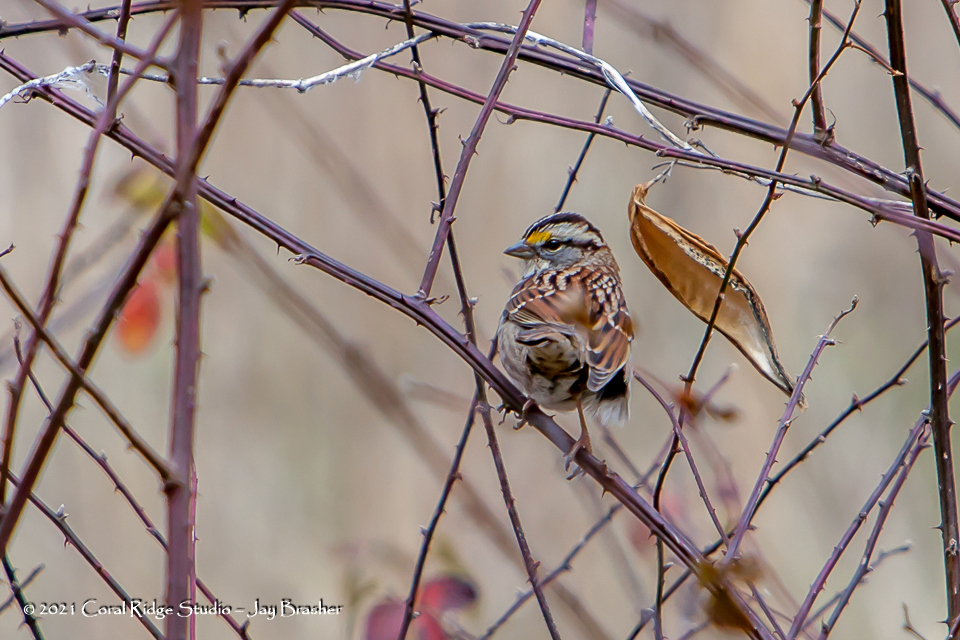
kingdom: Animalia
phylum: Chordata
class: Aves
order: Passeriformes
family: Passerellidae
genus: Zonotrichia
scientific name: Zonotrichia albicollis
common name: White-throated sparrow
